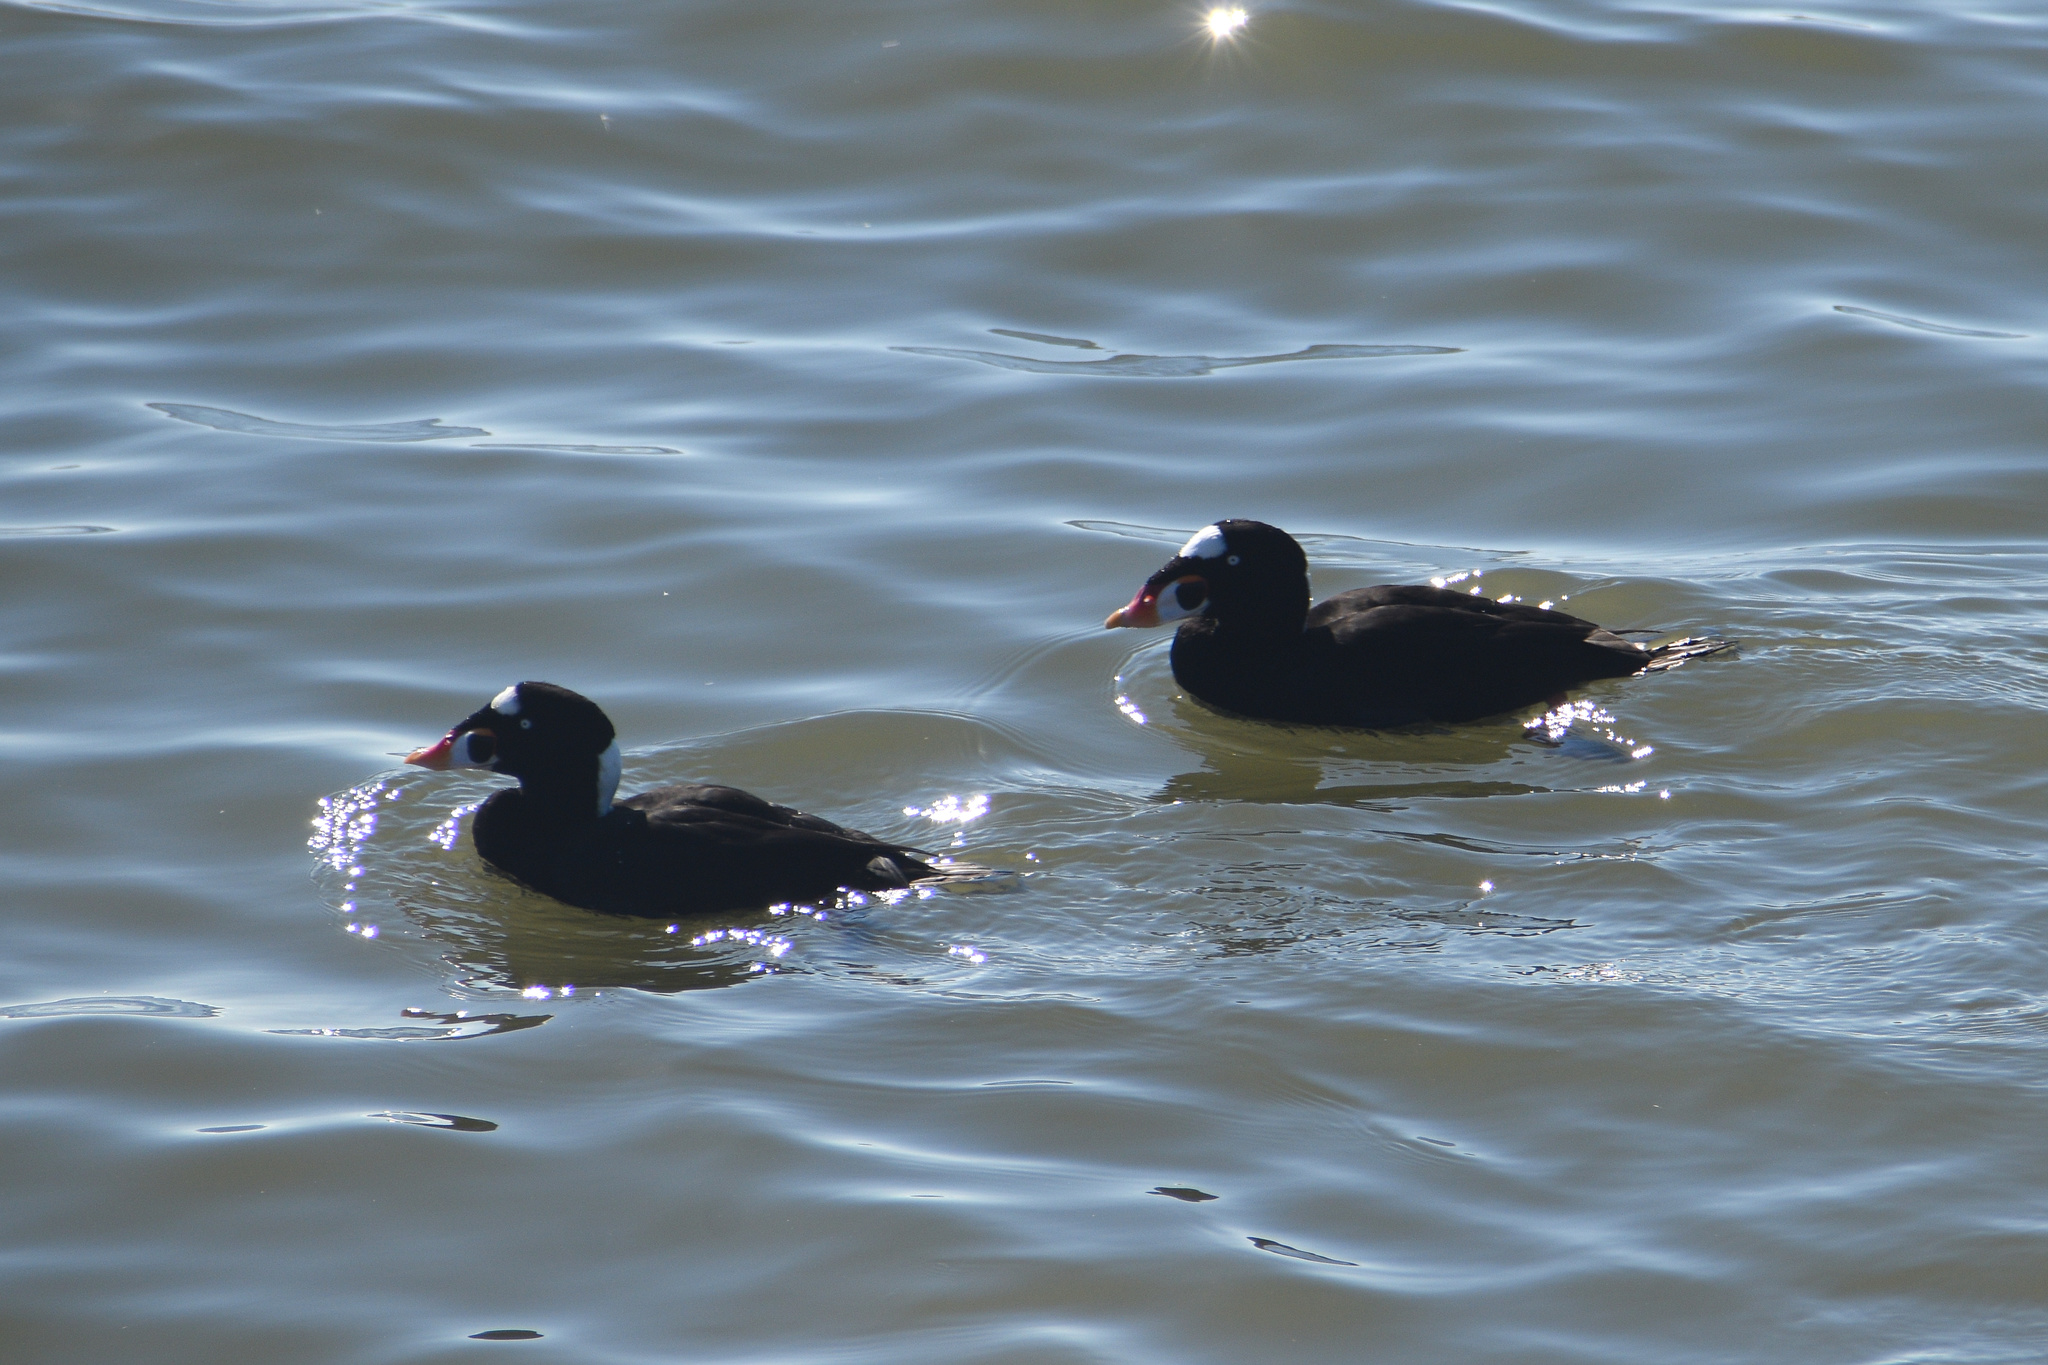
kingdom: Animalia
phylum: Chordata
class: Aves
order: Anseriformes
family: Anatidae
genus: Melanitta
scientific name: Melanitta perspicillata
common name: Surf scoter
